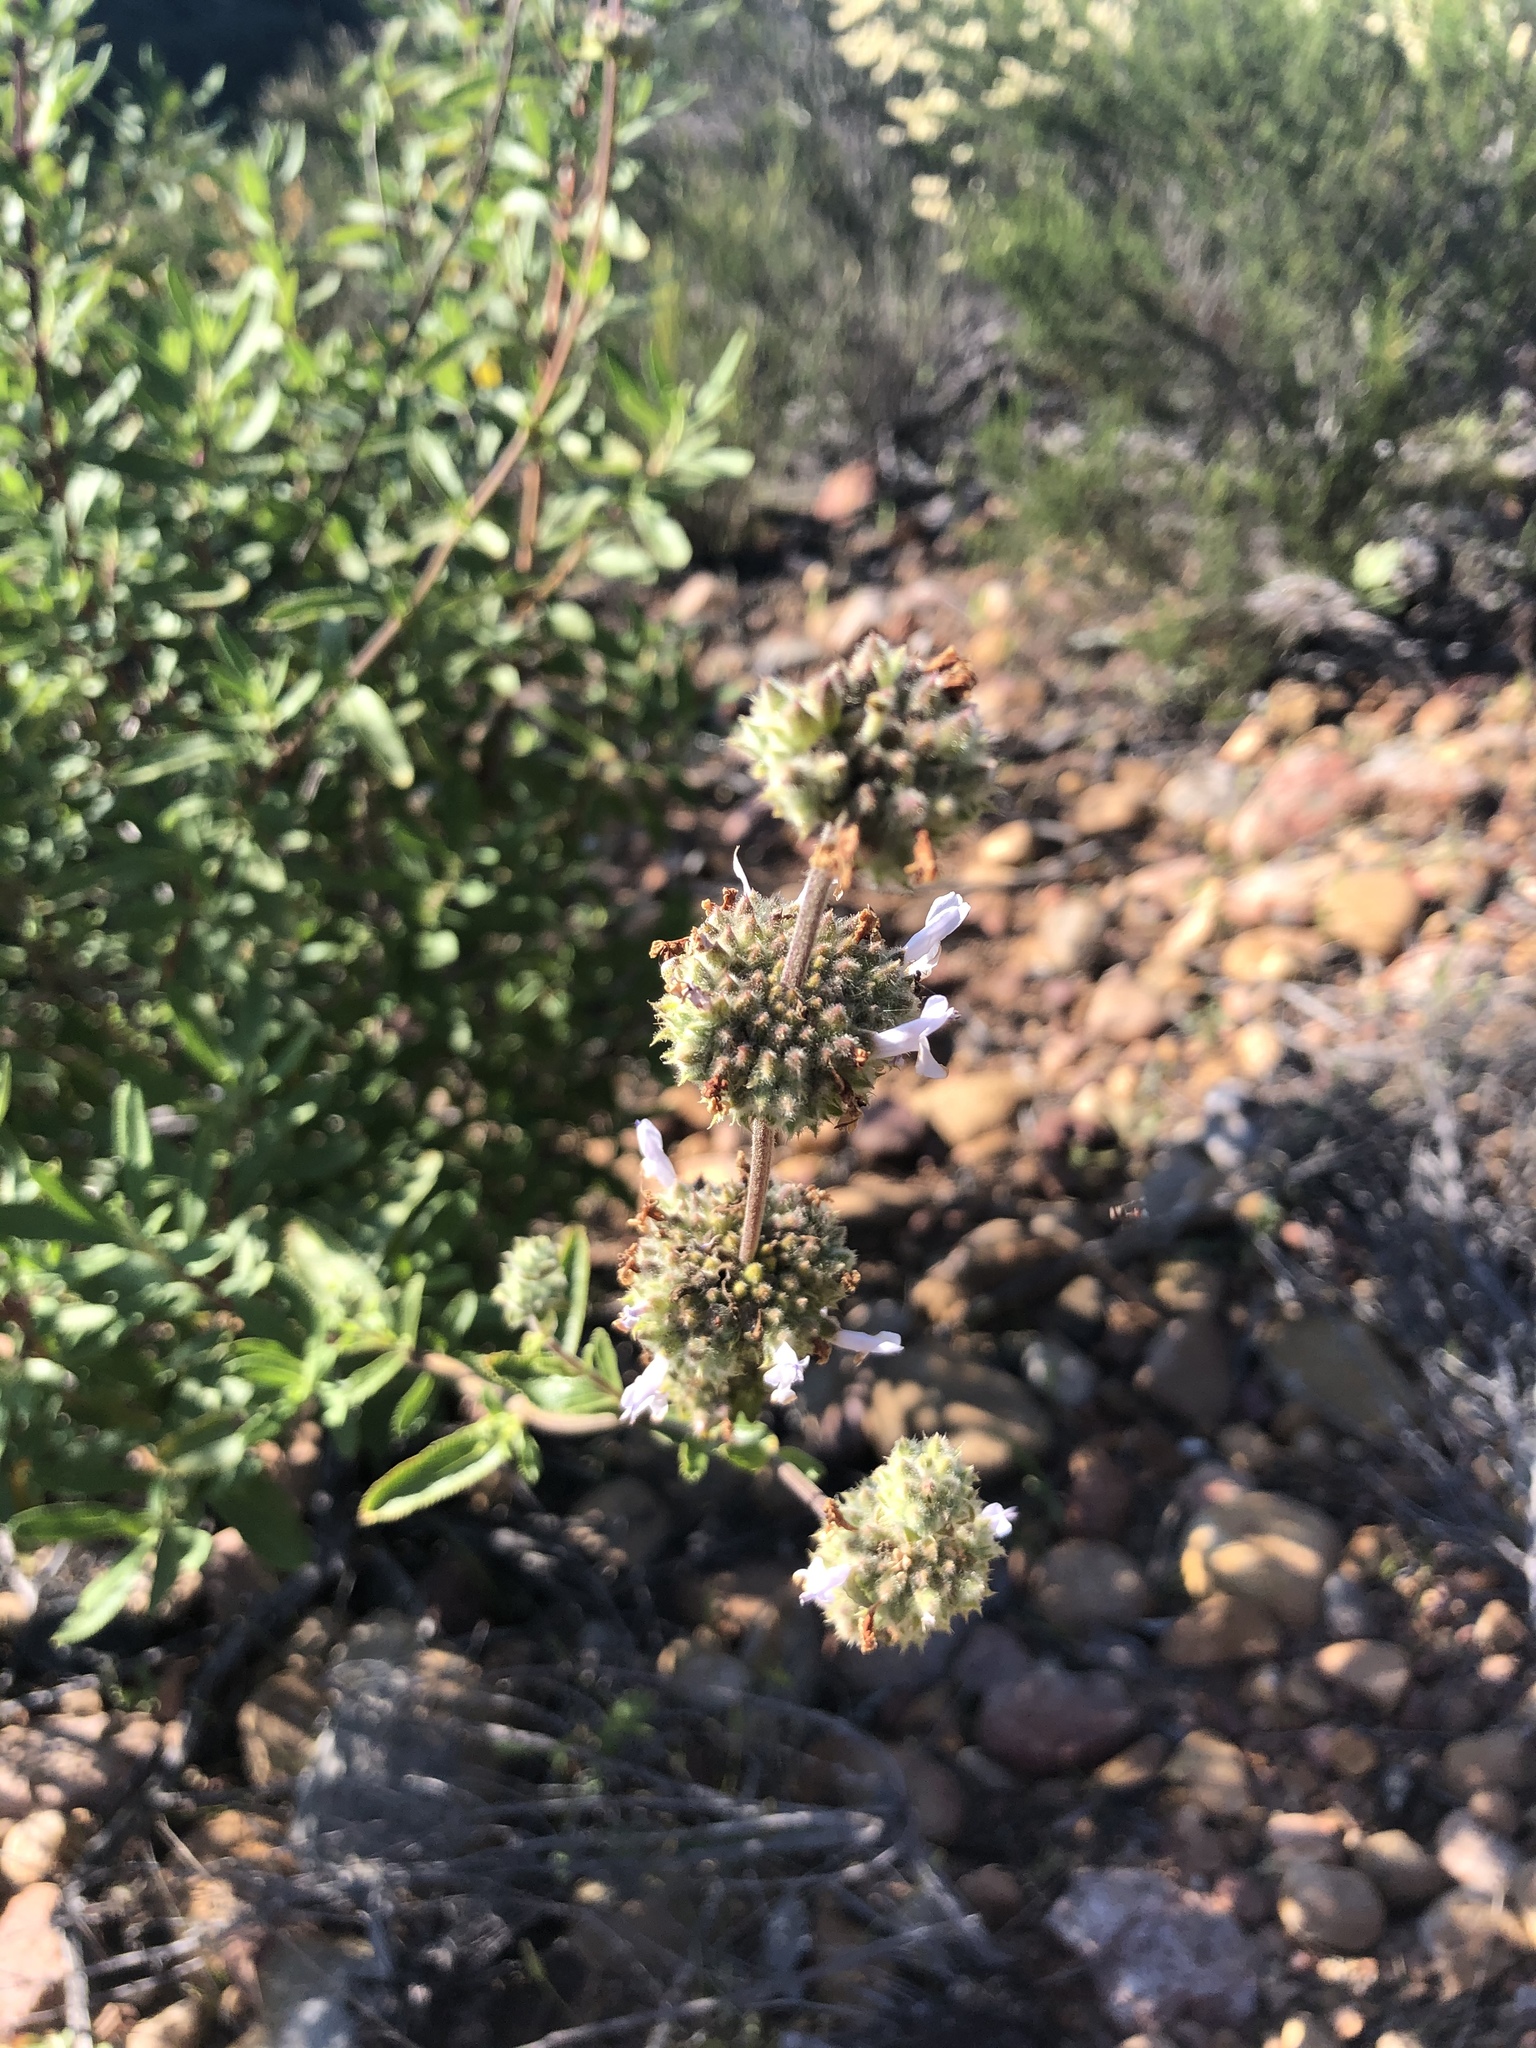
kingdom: Plantae
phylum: Tracheophyta
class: Magnoliopsida
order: Lamiales
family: Lamiaceae
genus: Salvia
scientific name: Salvia mellifera
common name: Black sage
